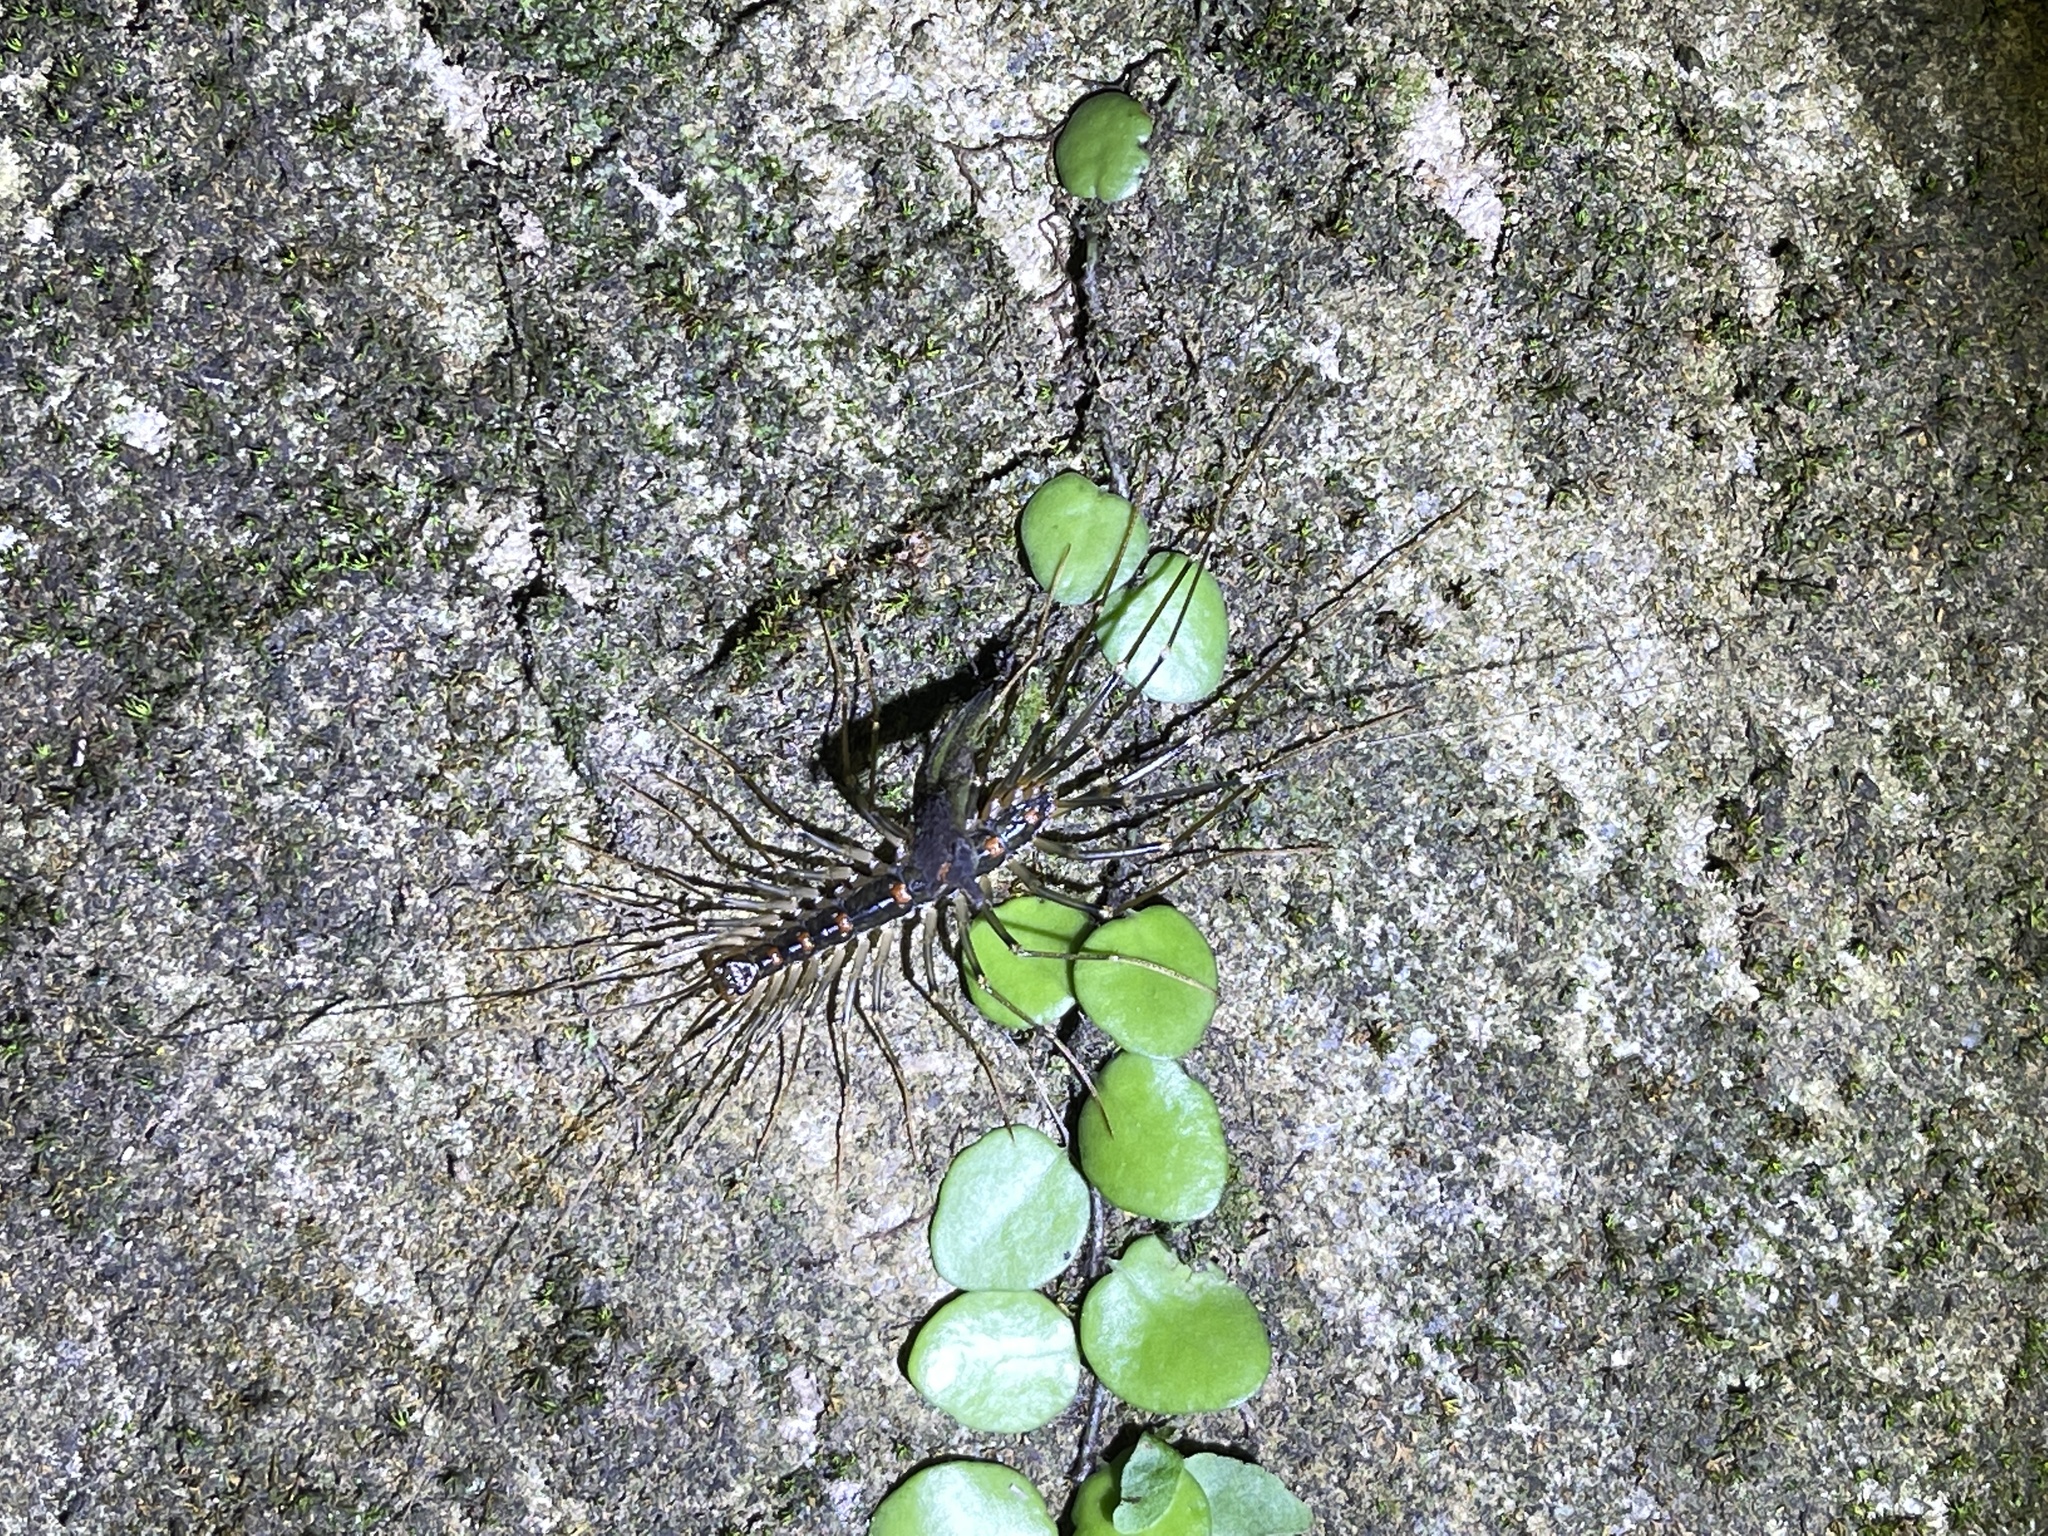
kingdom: Animalia
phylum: Arthropoda
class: Chilopoda
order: Scutigeromorpha
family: Scutigeridae
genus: Thereuopoda
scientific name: Thereuopoda clunifera
